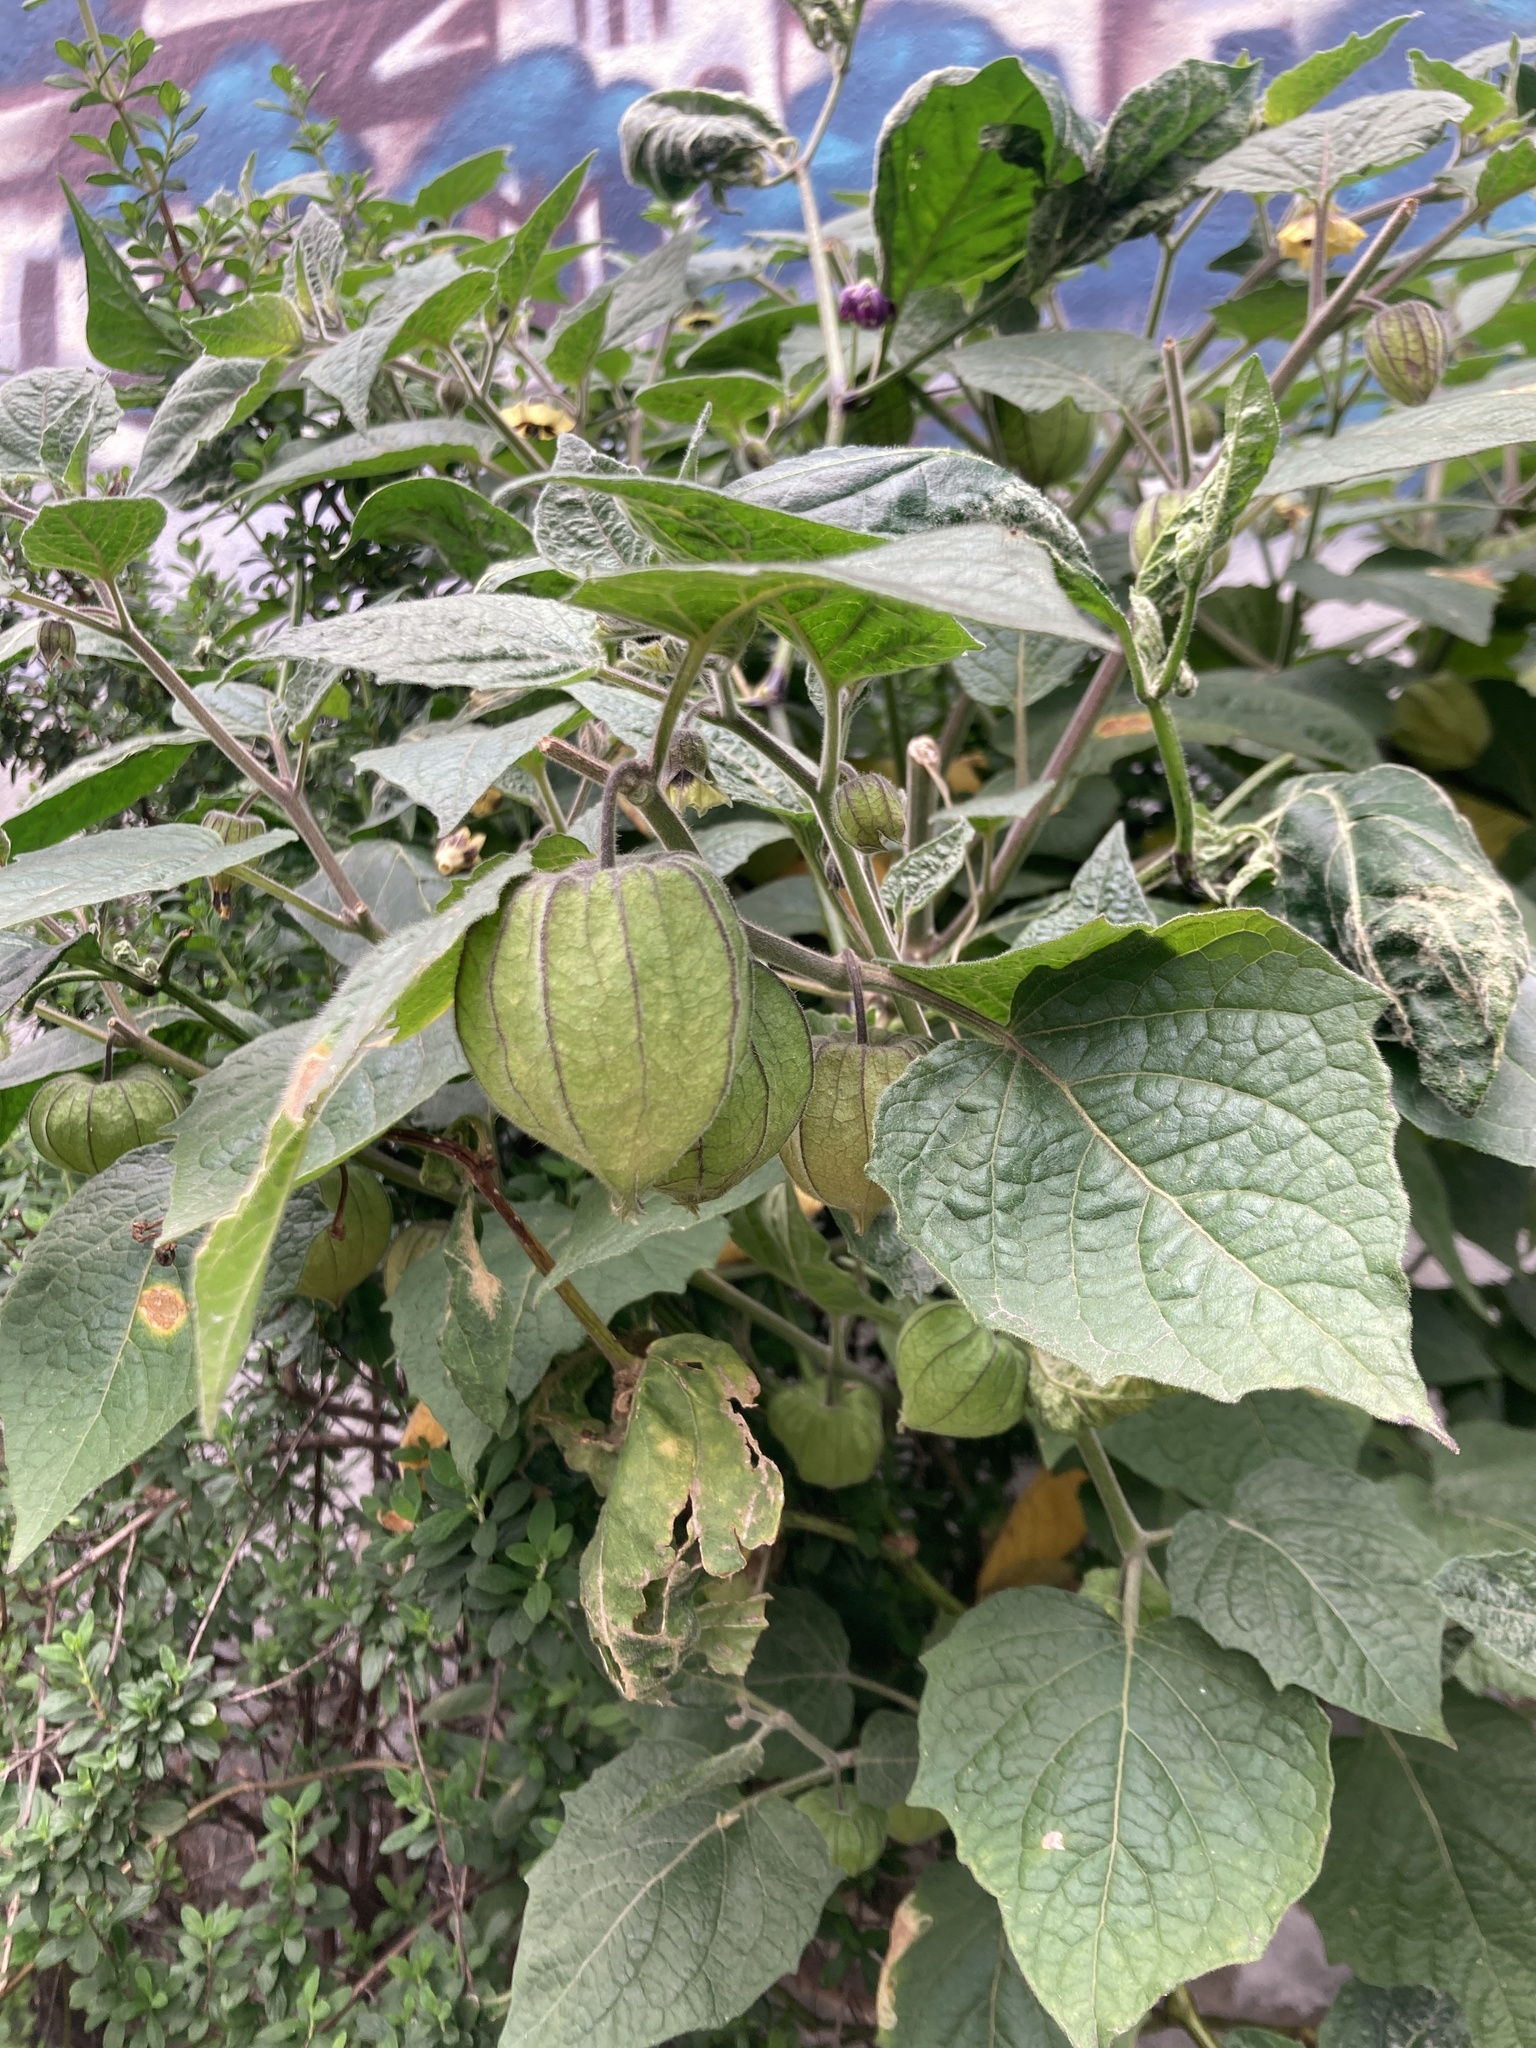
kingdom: Plantae
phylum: Tracheophyta
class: Magnoliopsida
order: Solanales
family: Solanaceae
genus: Physalis
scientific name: Physalis peruviana
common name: Cape-gooseberry
